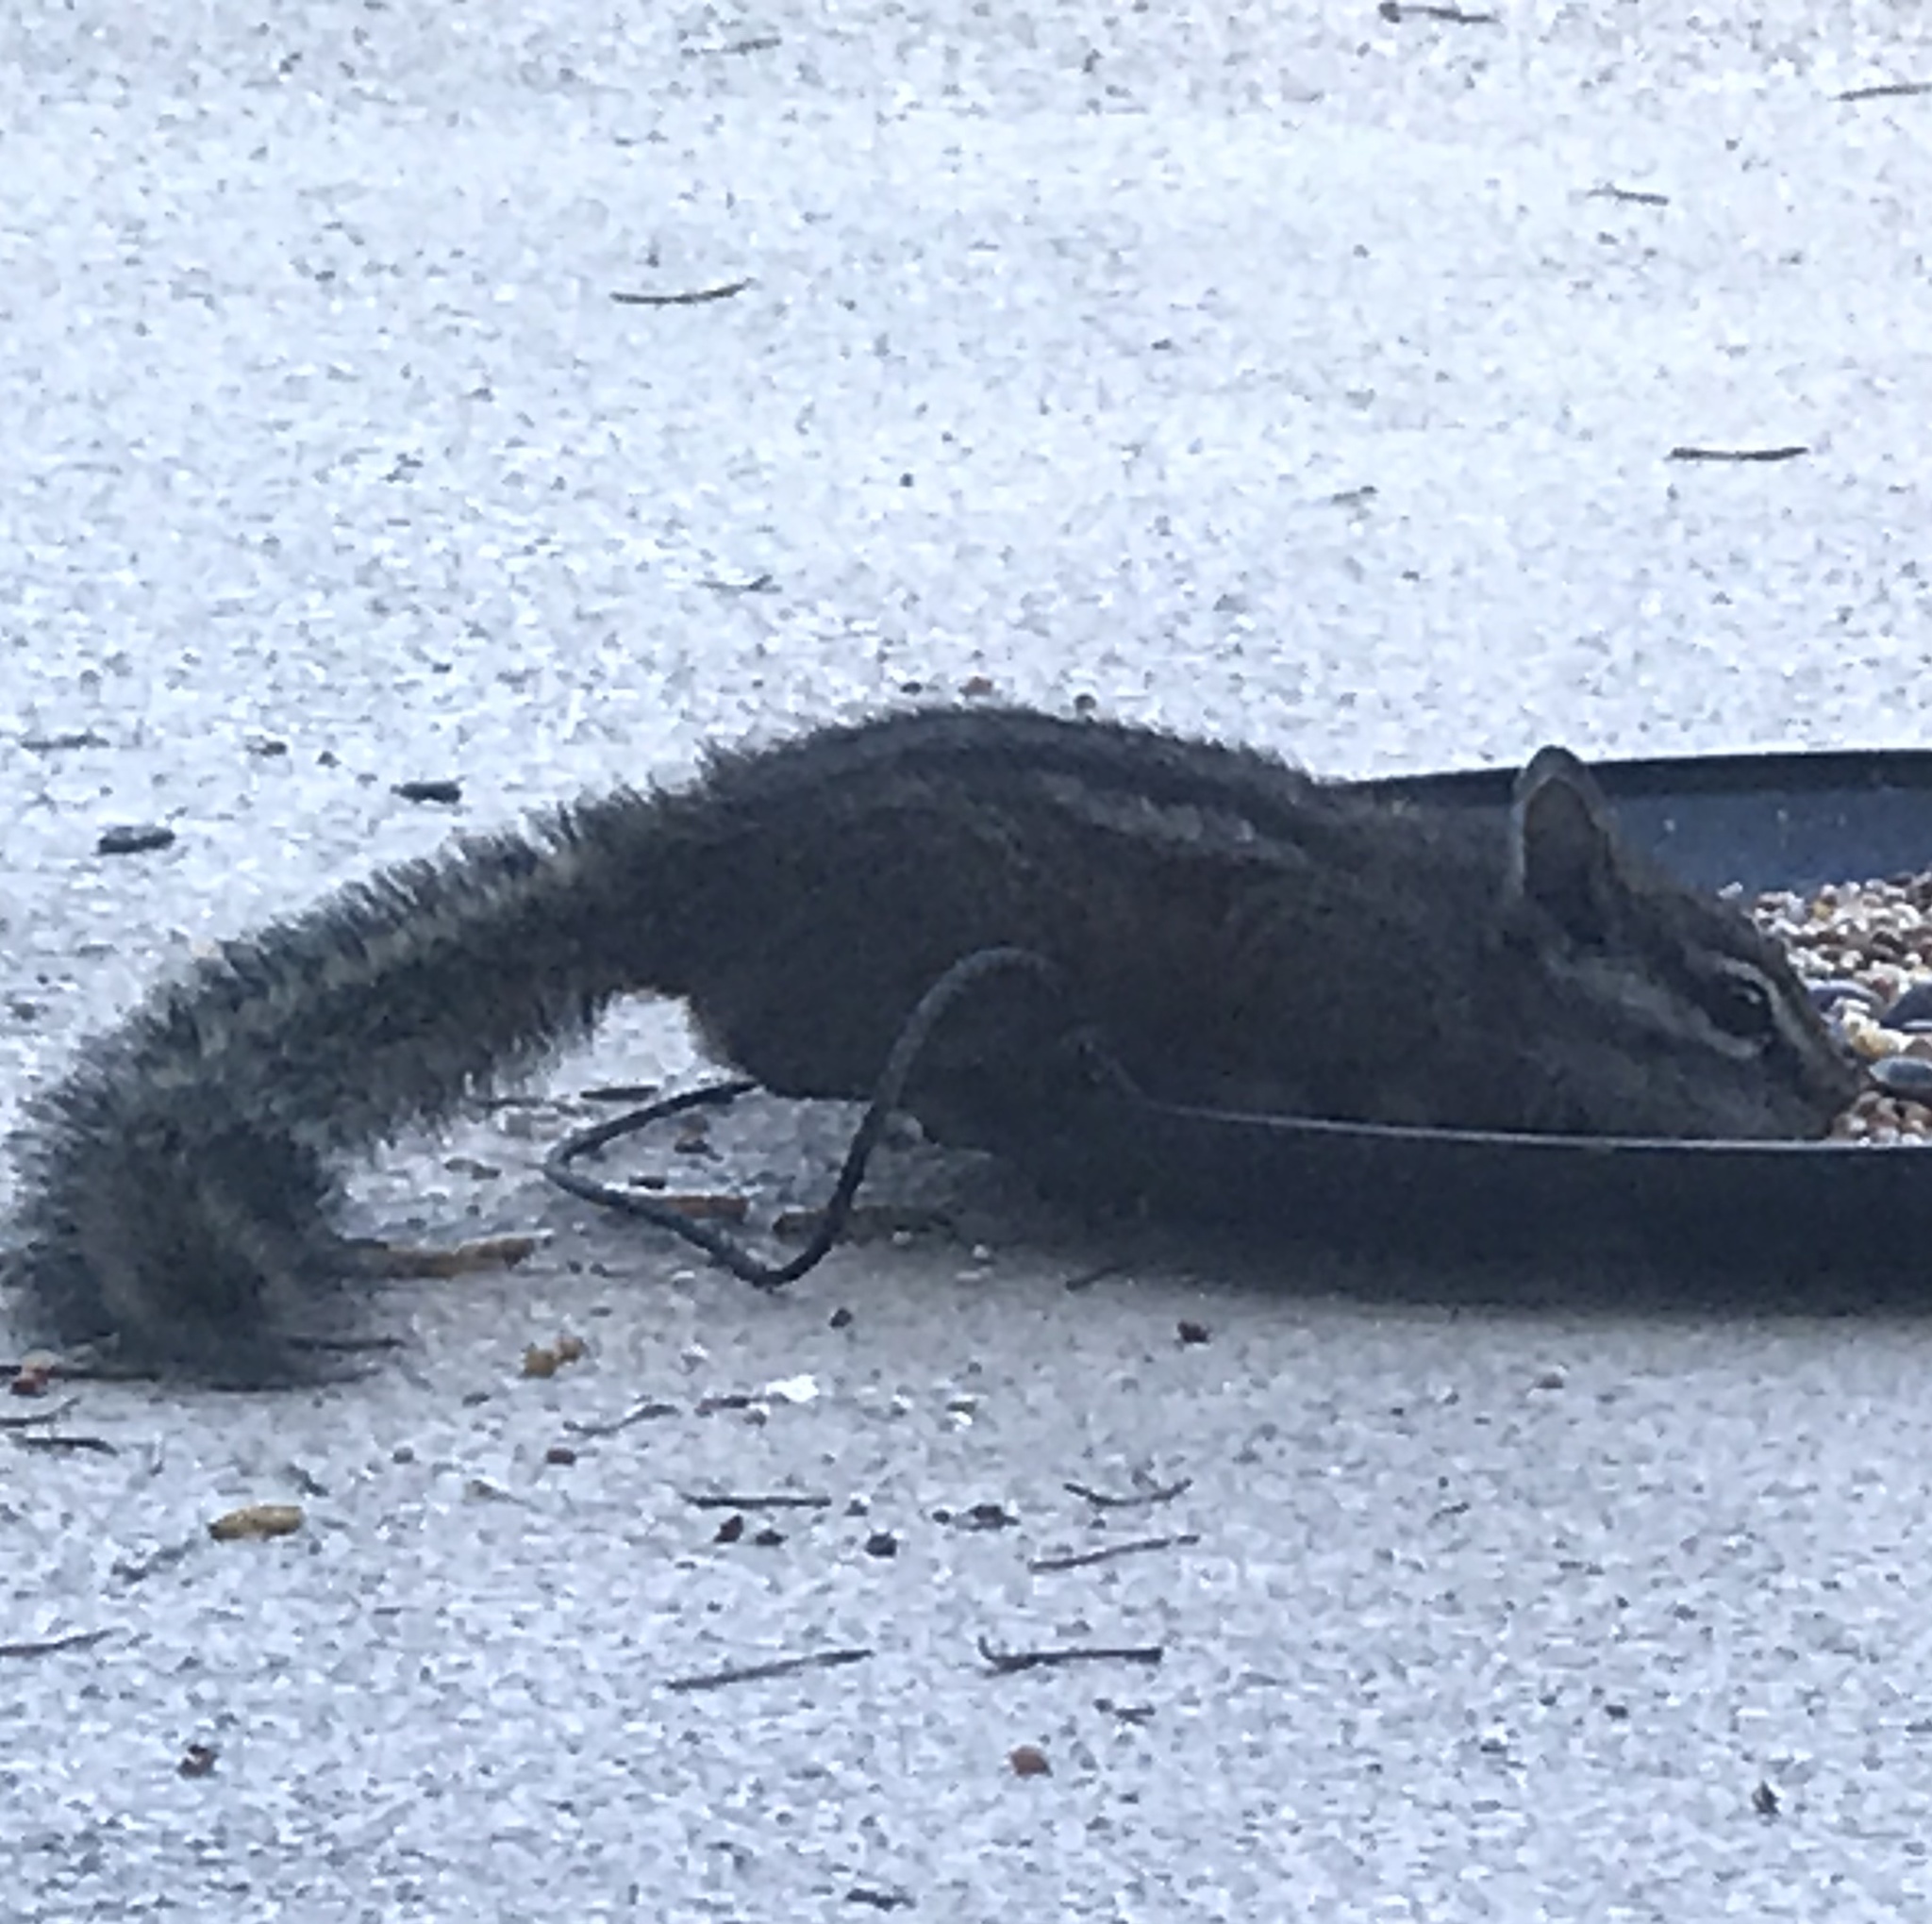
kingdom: Animalia
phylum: Chordata
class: Mammalia
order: Rodentia
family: Sciuridae
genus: Tamias
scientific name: Tamias merriami
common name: Merriam's chipmunk
